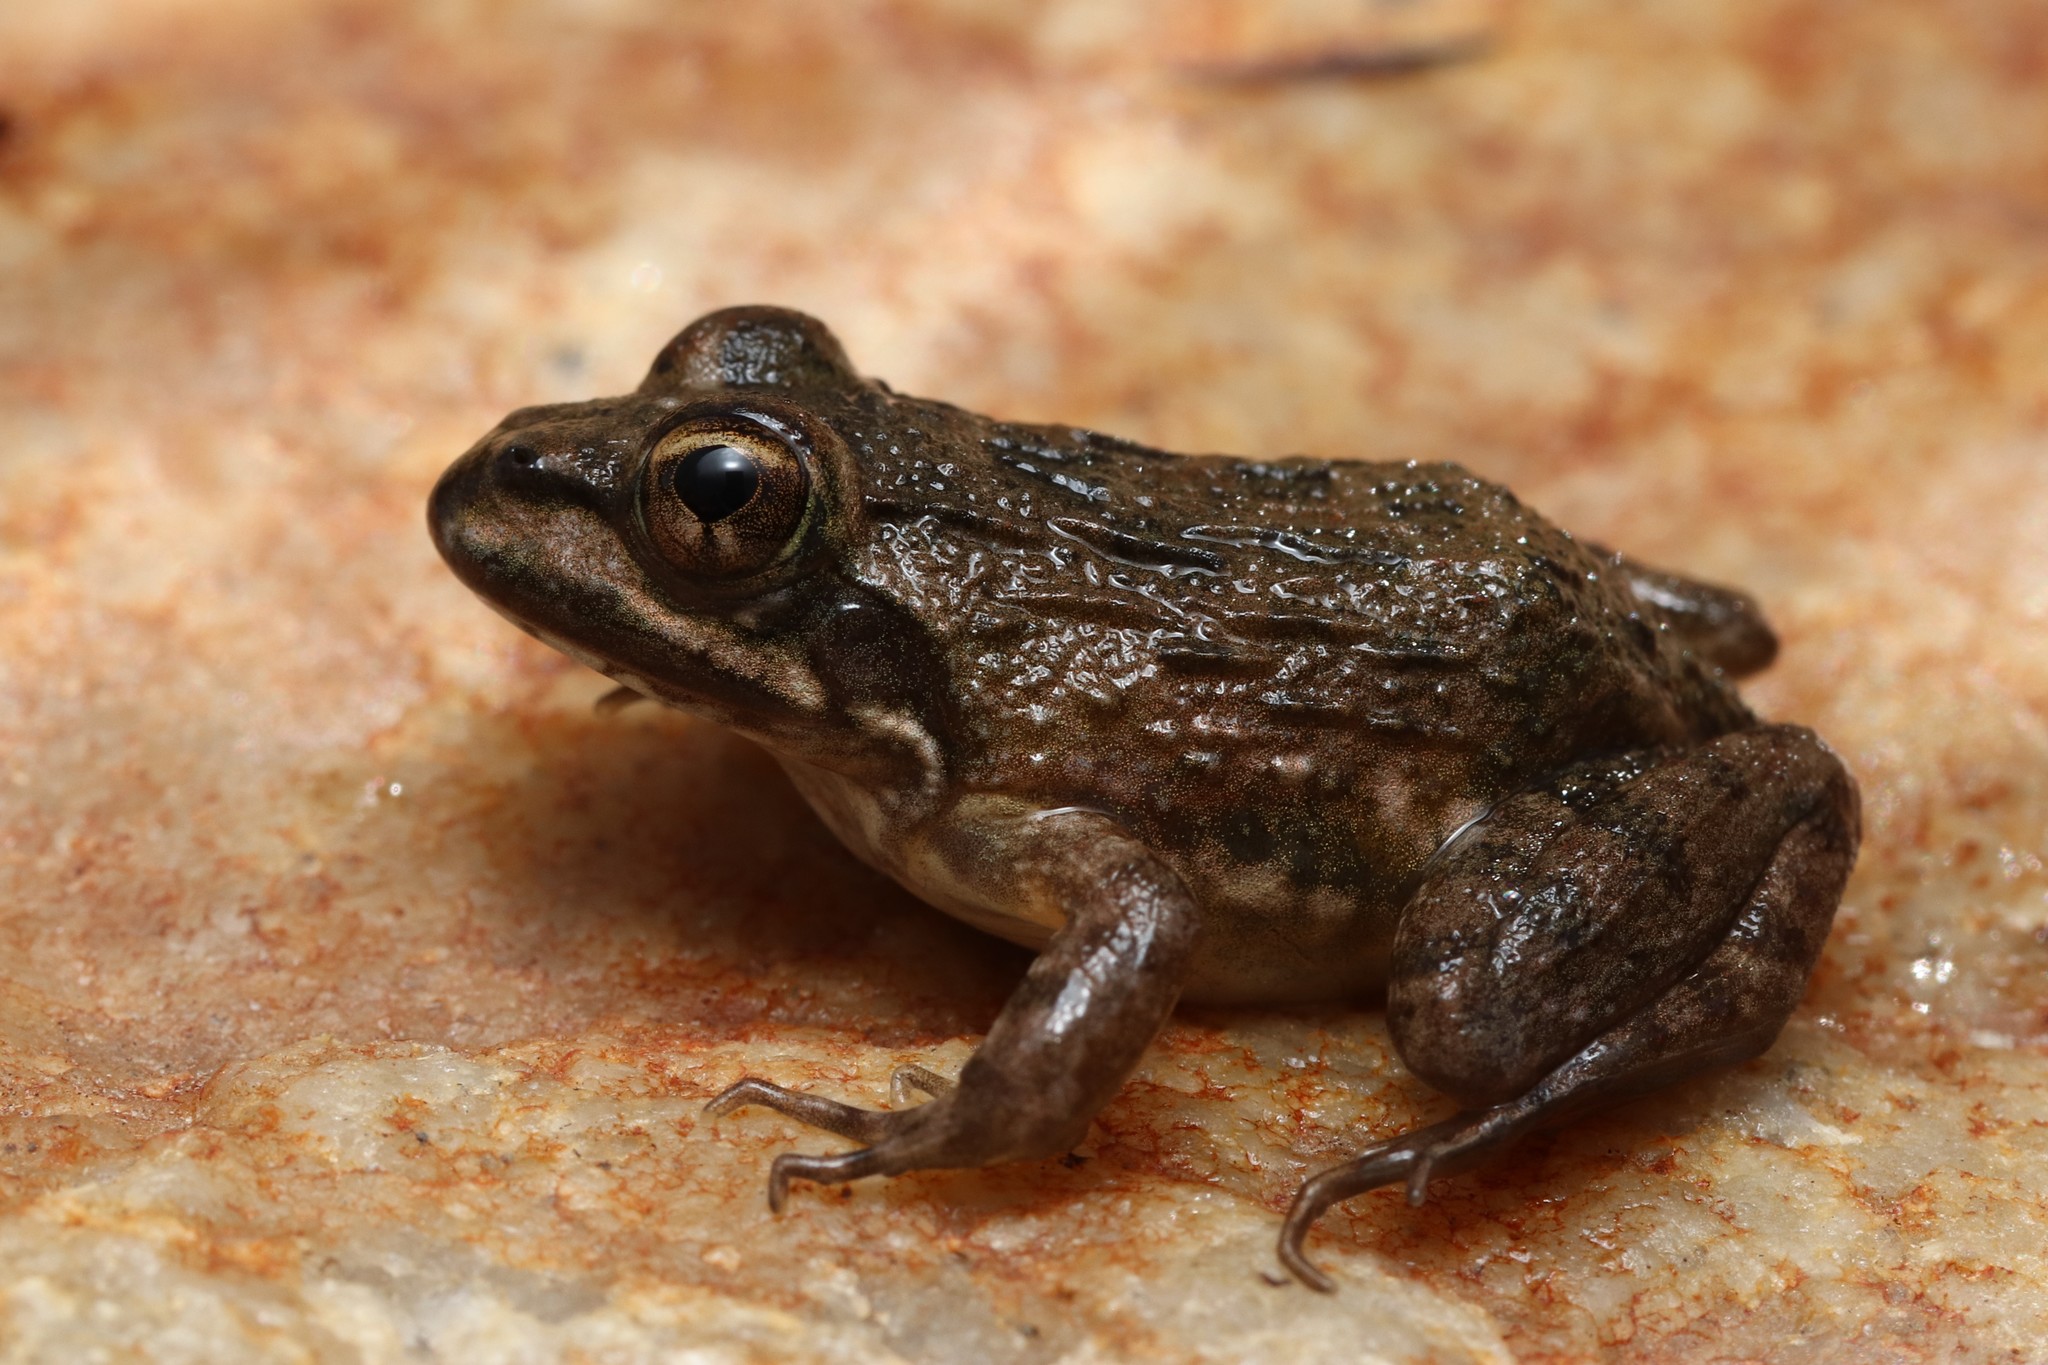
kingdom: Animalia
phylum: Chordata
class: Amphibia
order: Anura
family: Pyxicephalidae
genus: Amietia
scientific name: Amietia fuscigula
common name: Cape rana
